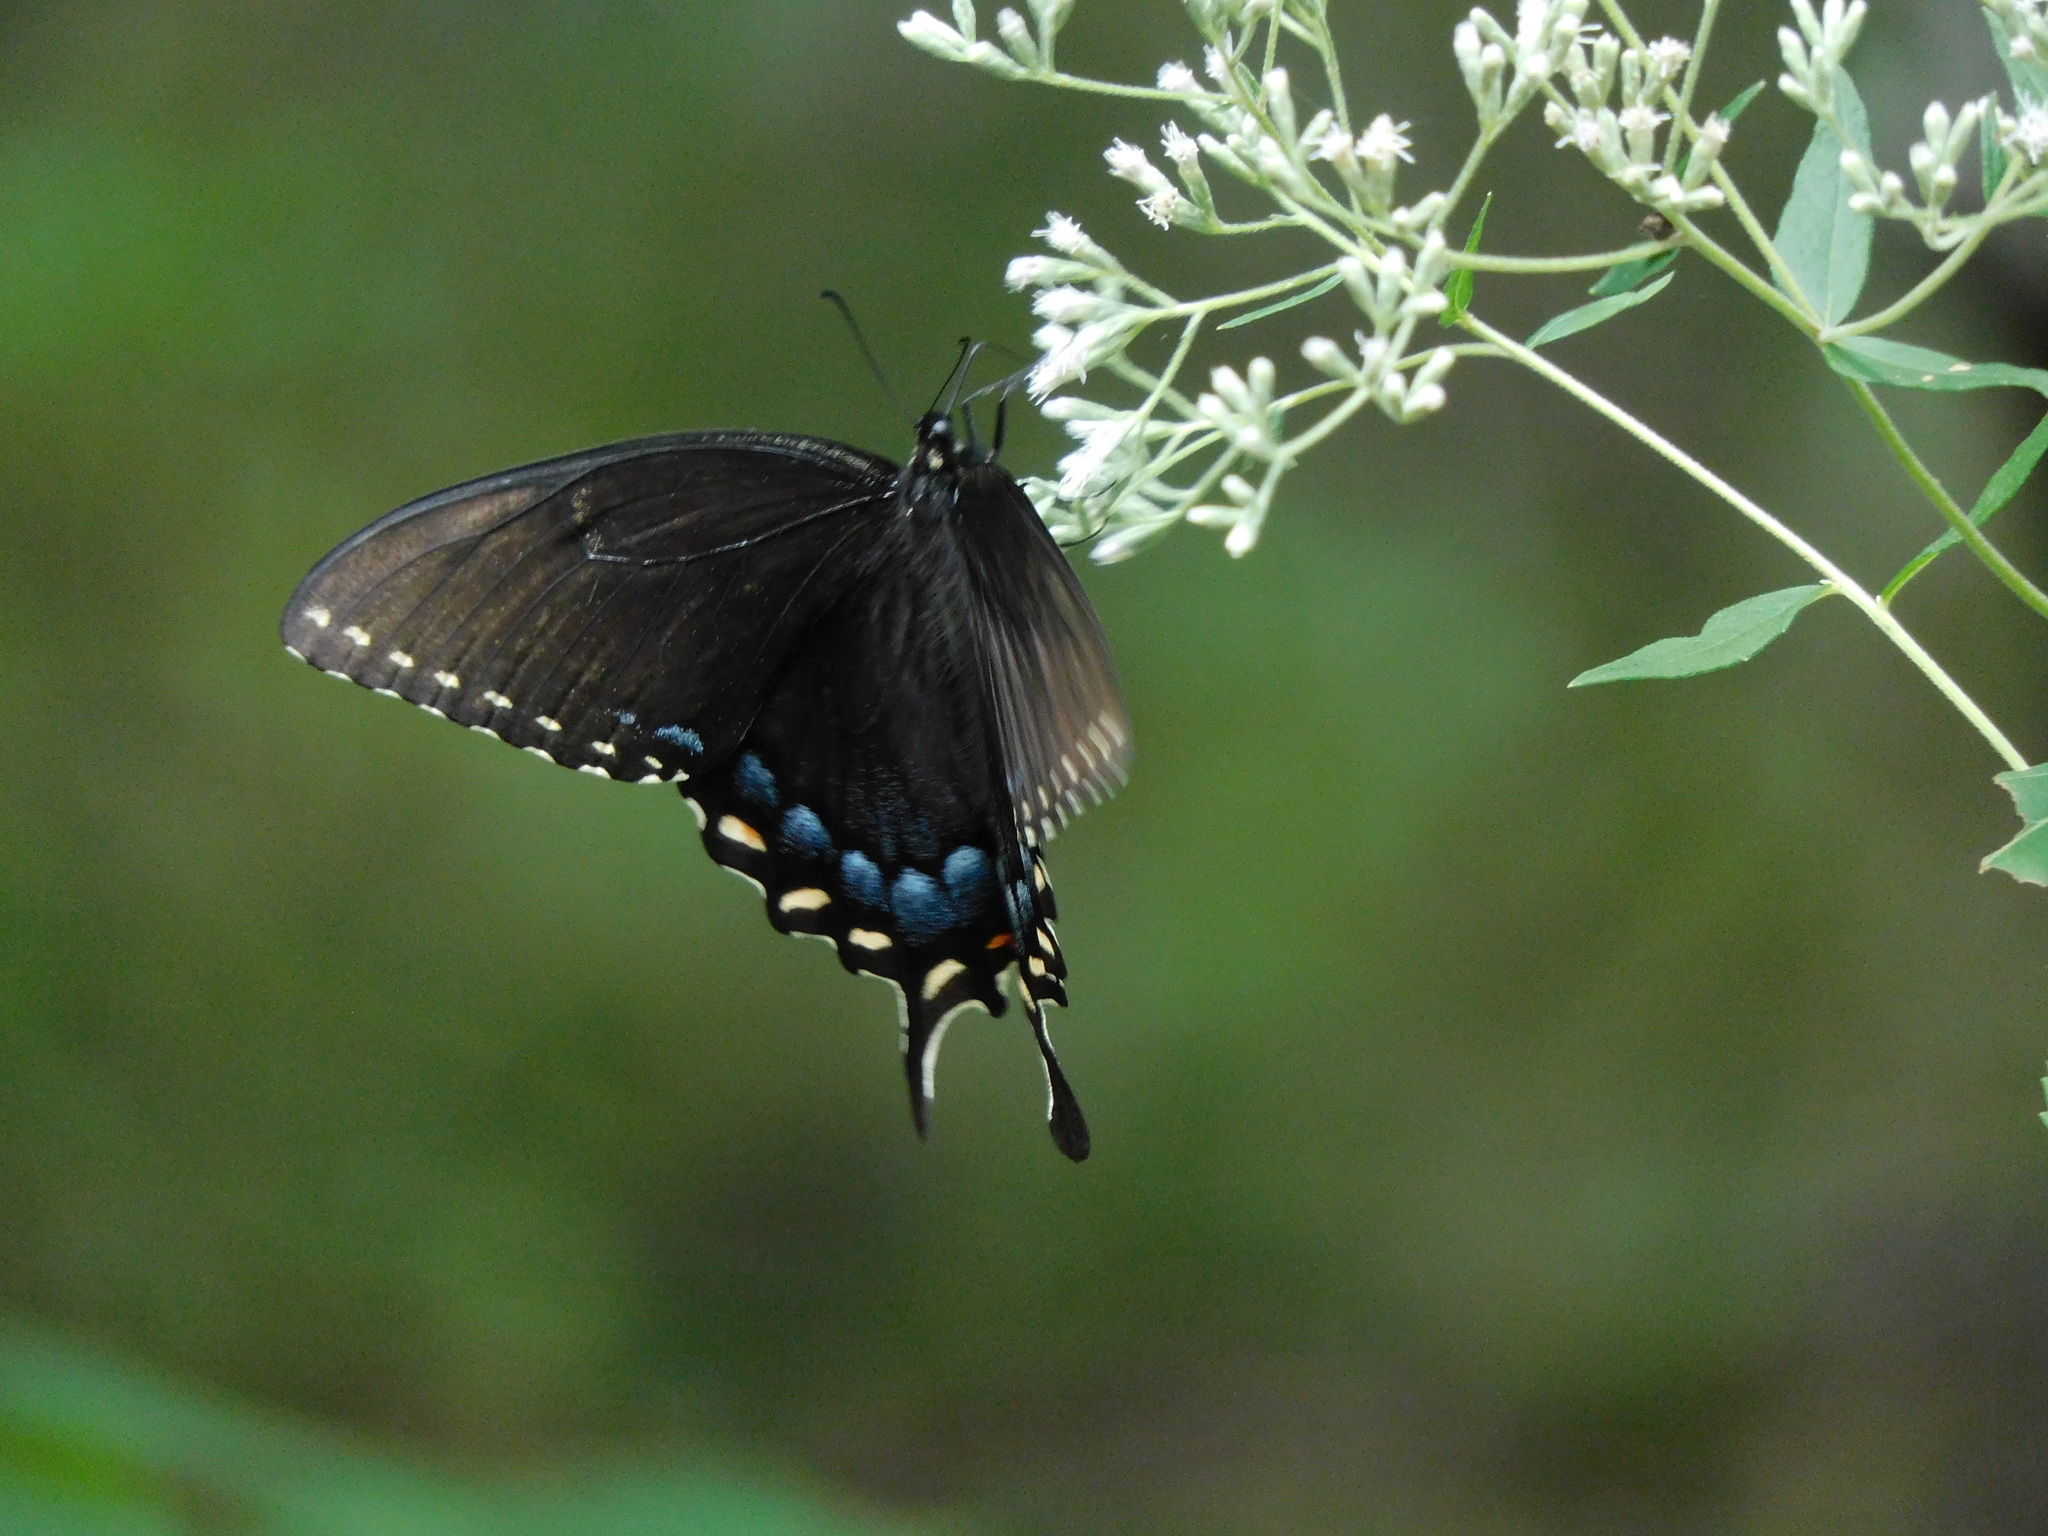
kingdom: Animalia
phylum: Arthropoda
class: Insecta
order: Lepidoptera
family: Papilionidae
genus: Papilio
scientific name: Papilio glaucus
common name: Tiger swallowtail
